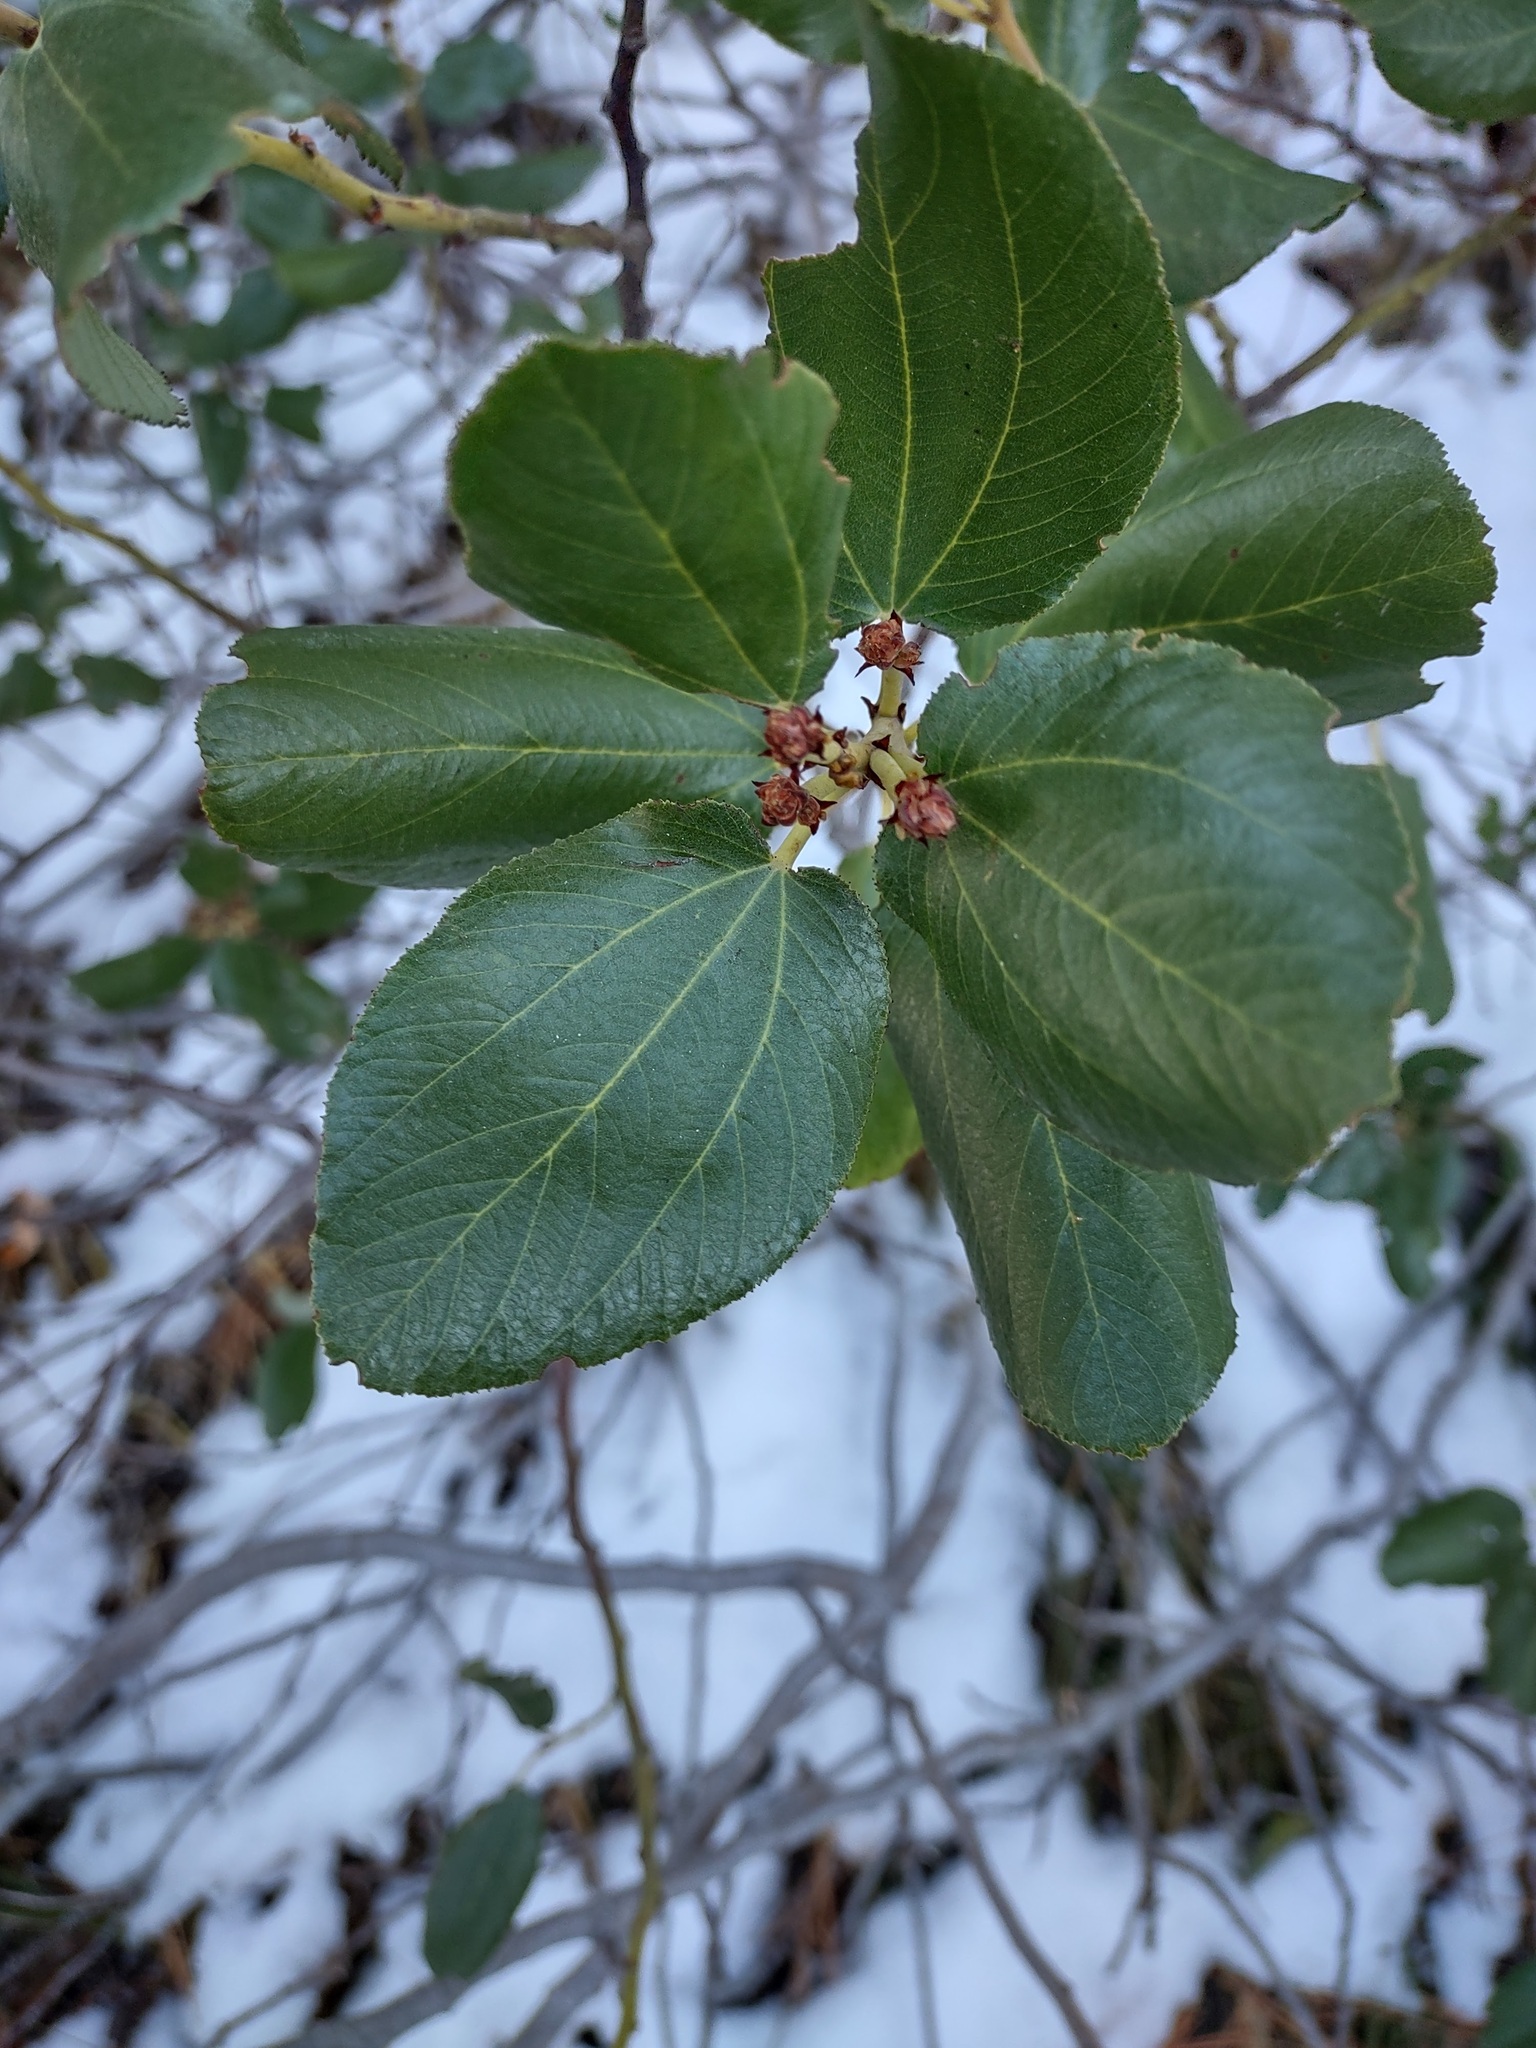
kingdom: Plantae
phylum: Tracheophyta
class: Magnoliopsida
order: Rosales
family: Rhamnaceae
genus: Ceanothus
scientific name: Ceanothus velutinus
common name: Snowbrush
